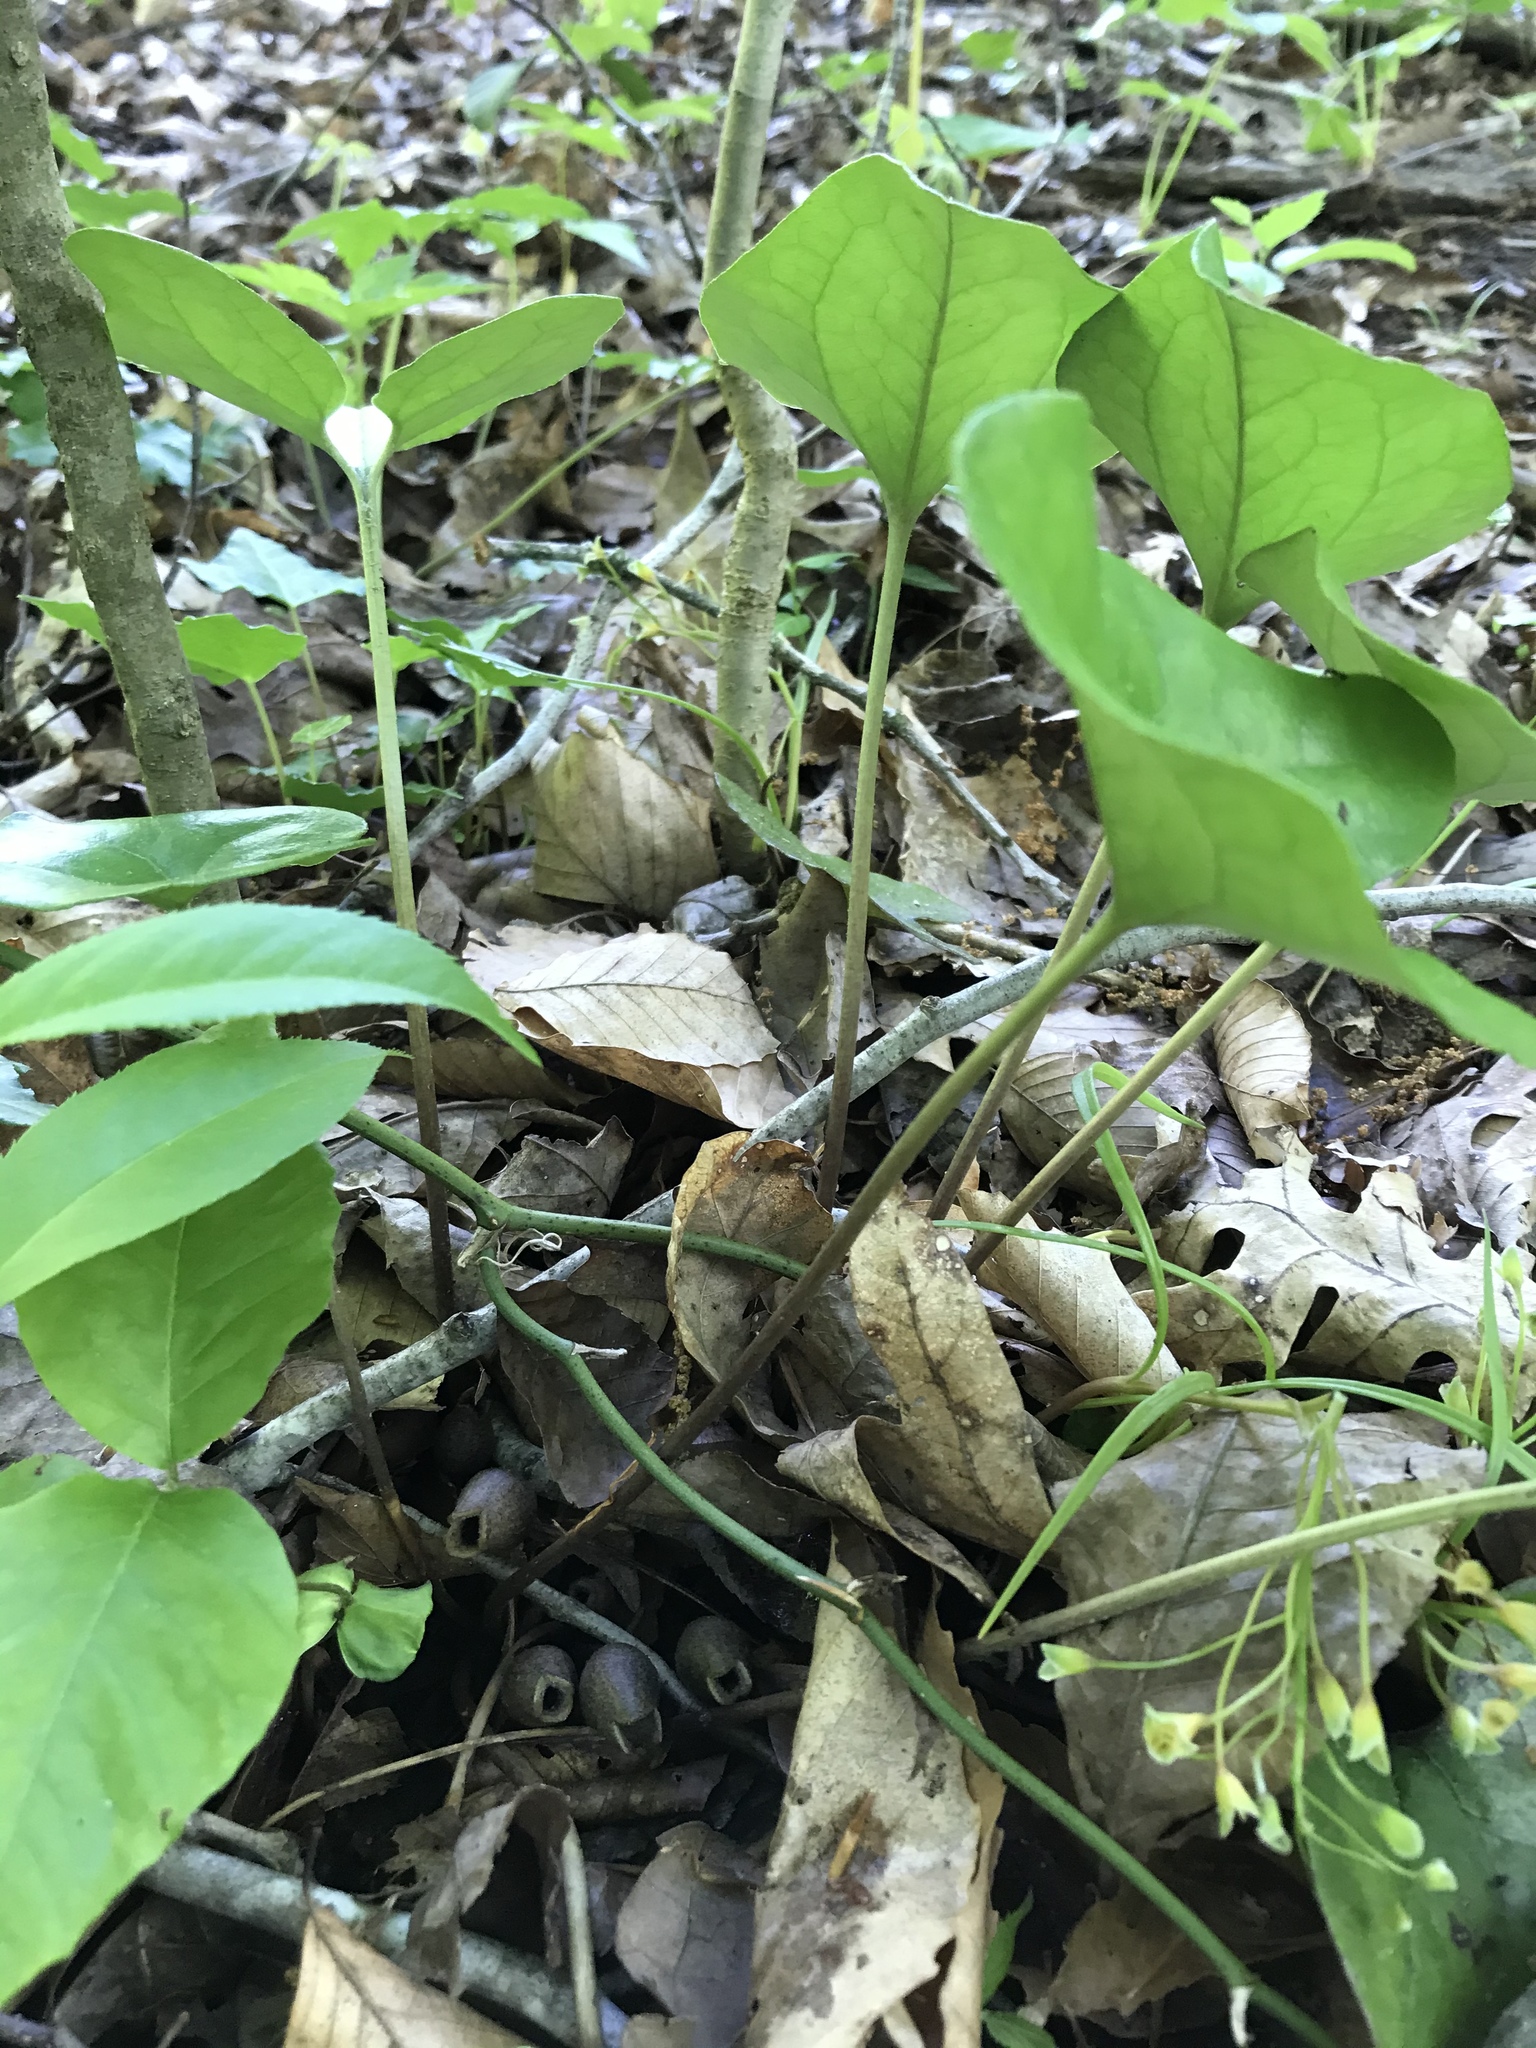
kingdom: Plantae
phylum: Tracheophyta
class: Magnoliopsida
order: Piperales
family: Aristolochiaceae
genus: Hexastylis
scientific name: Hexastylis arifolia
